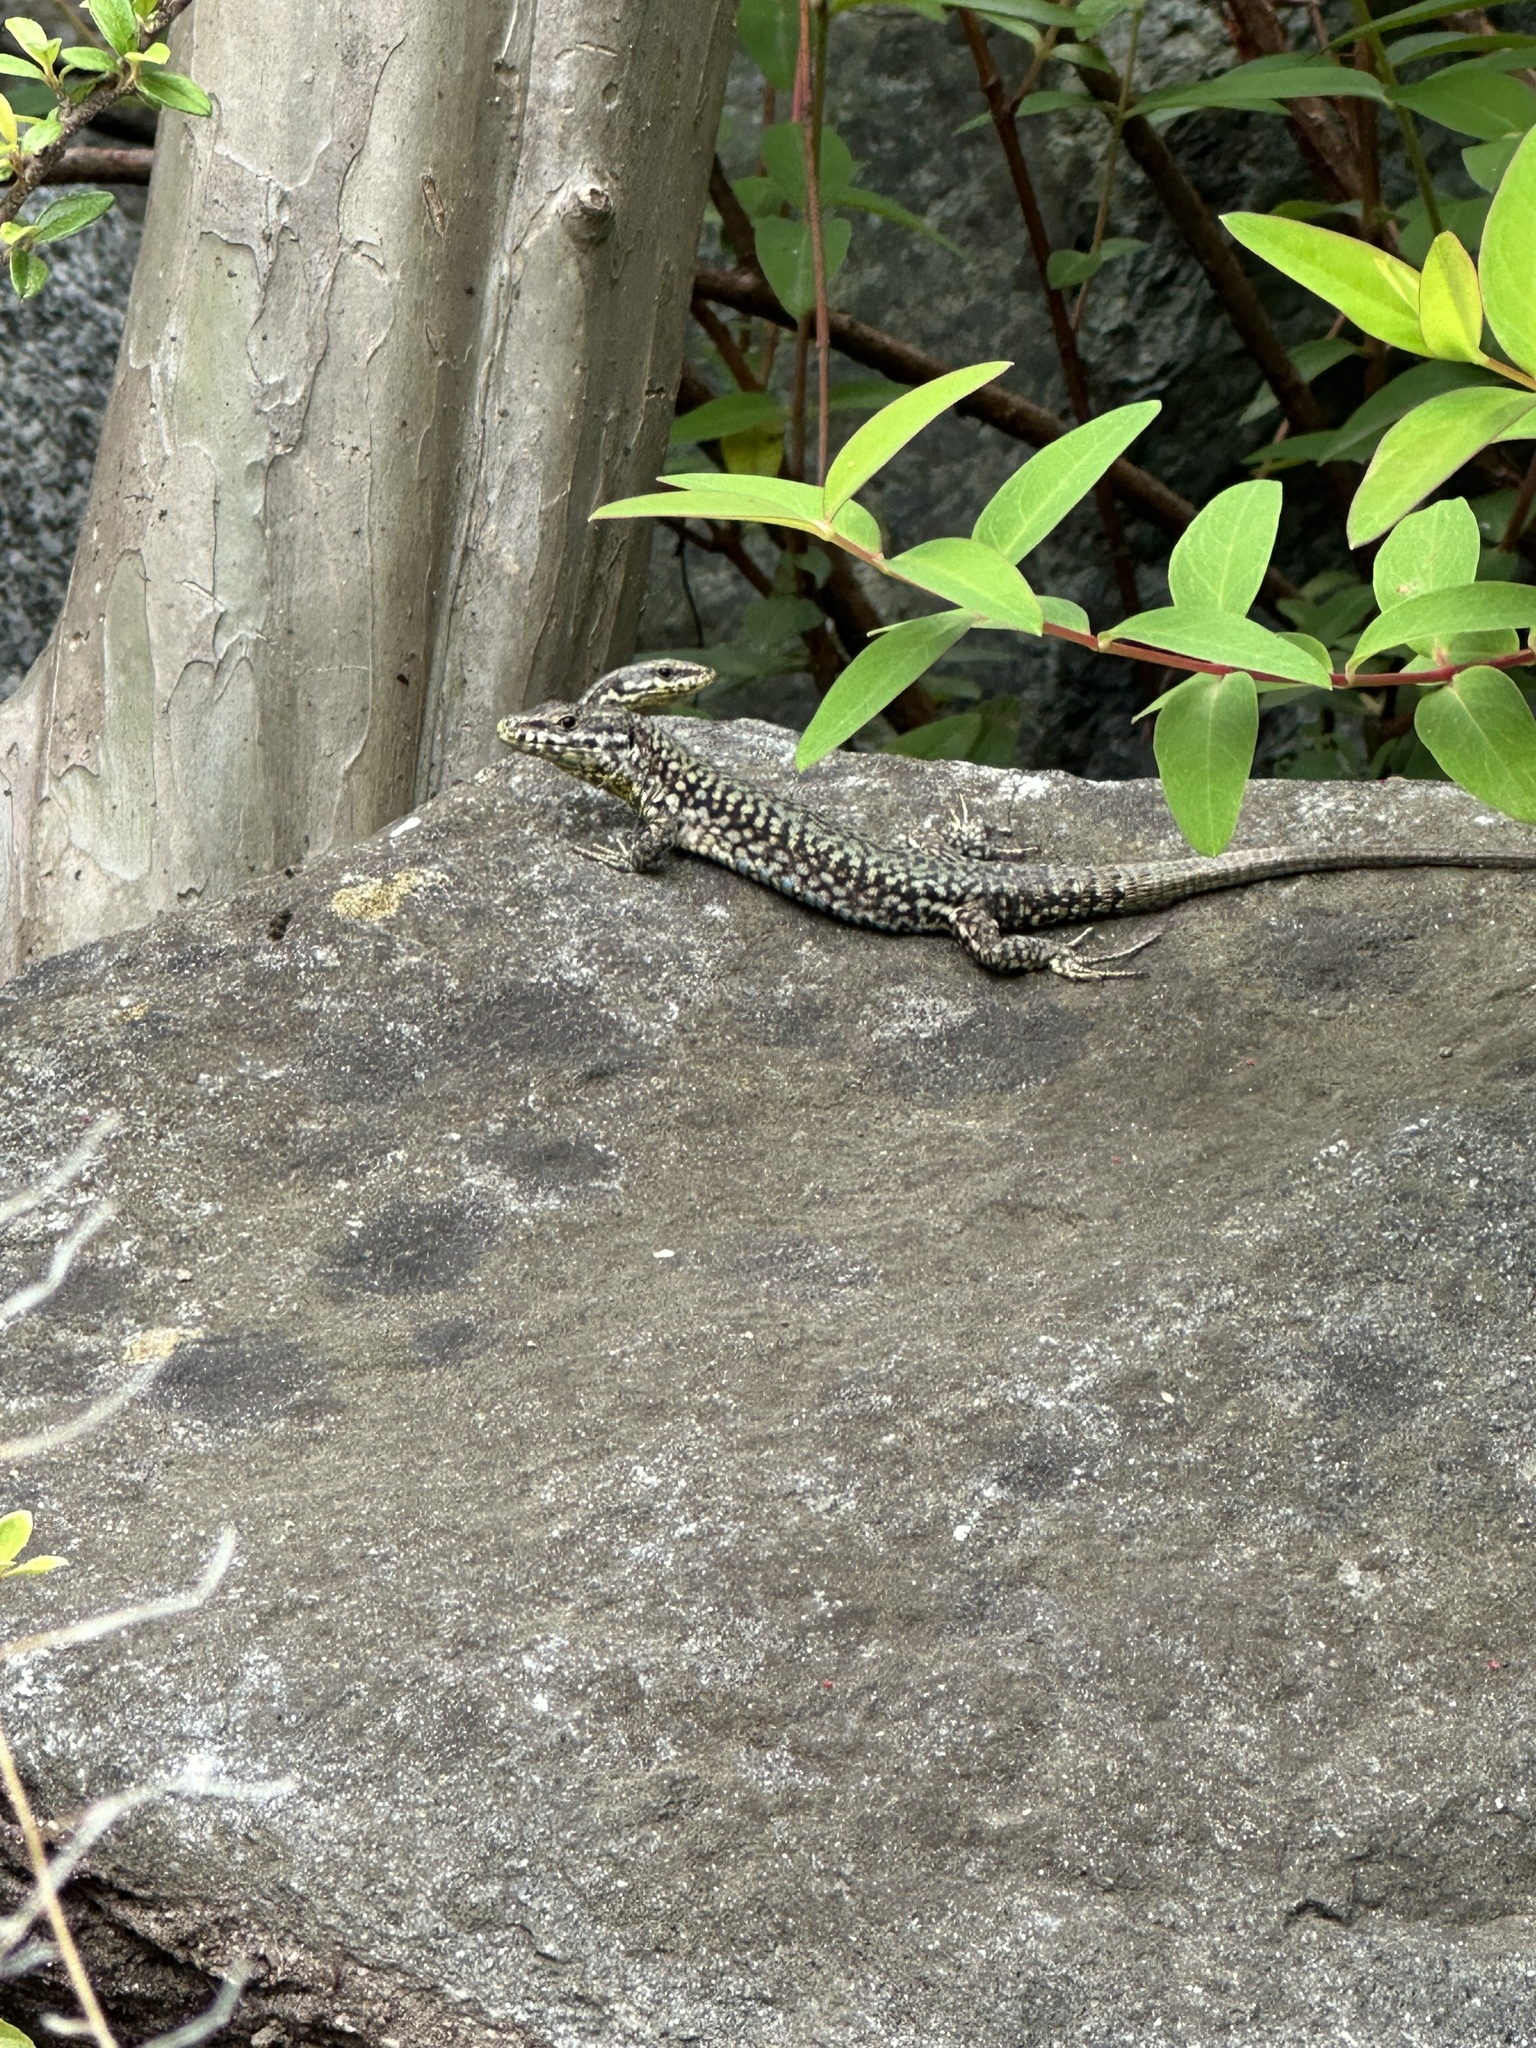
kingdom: Animalia
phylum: Chordata
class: Squamata
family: Lacertidae
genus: Podarcis
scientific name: Podarcis muralis
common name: Common wall lizard
